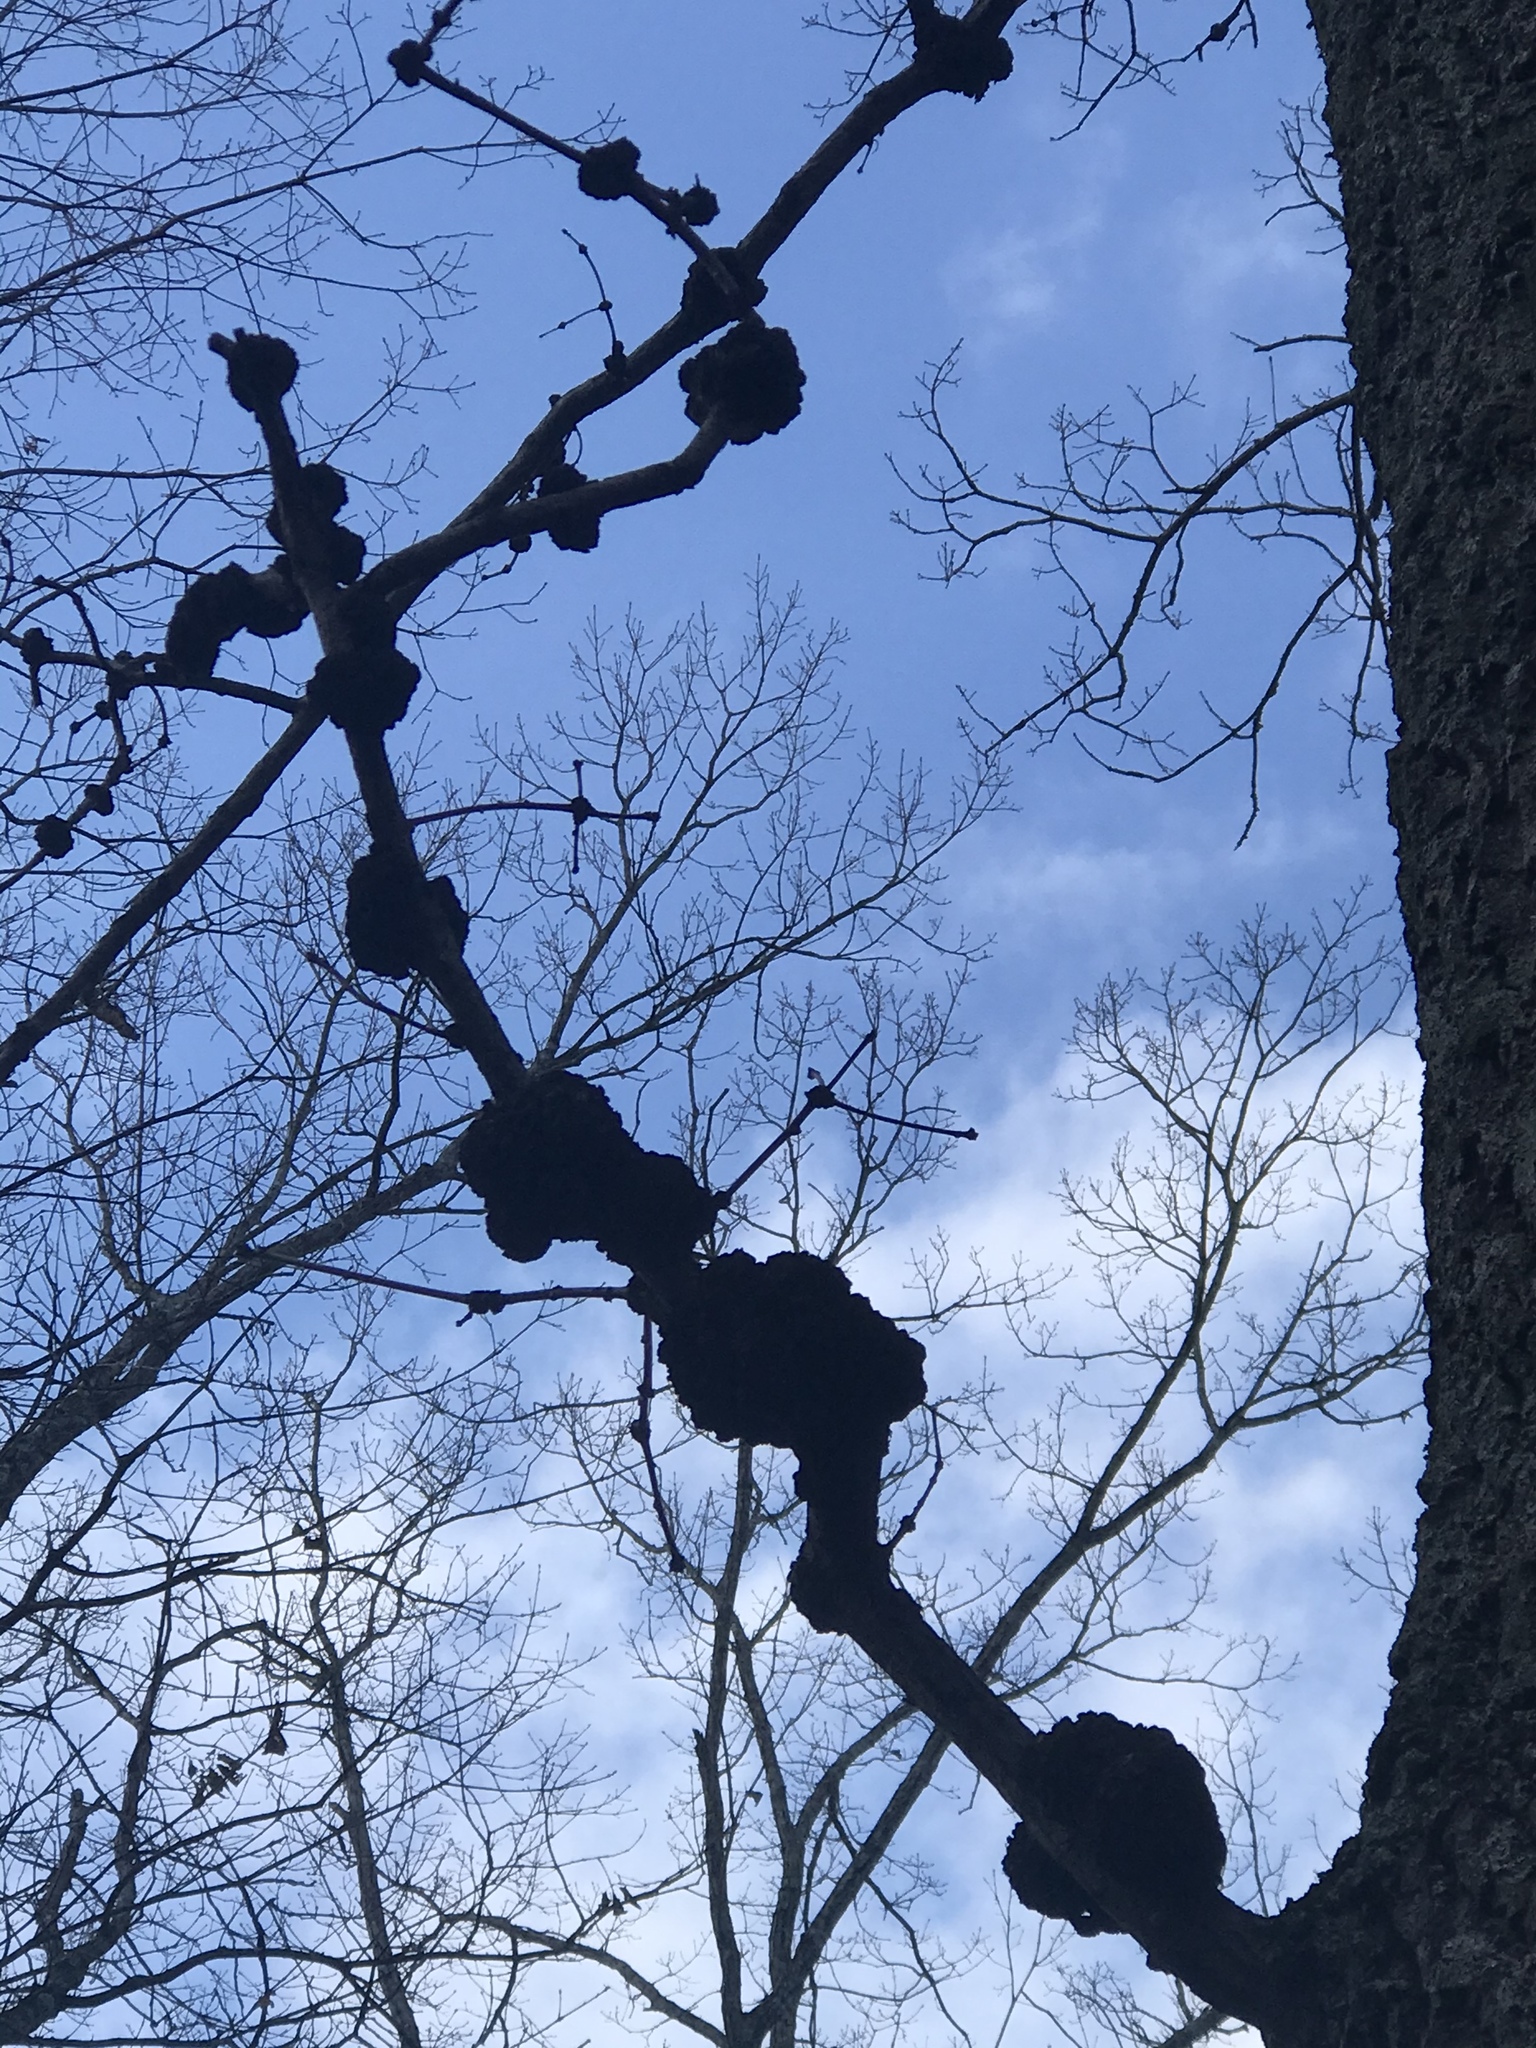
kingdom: Fungi
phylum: Ascomycota
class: Dothideomycetes
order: Venturiales
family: Venturiaceae
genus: Apiosporina
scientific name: Apiosporina morbosa
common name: Black knot
